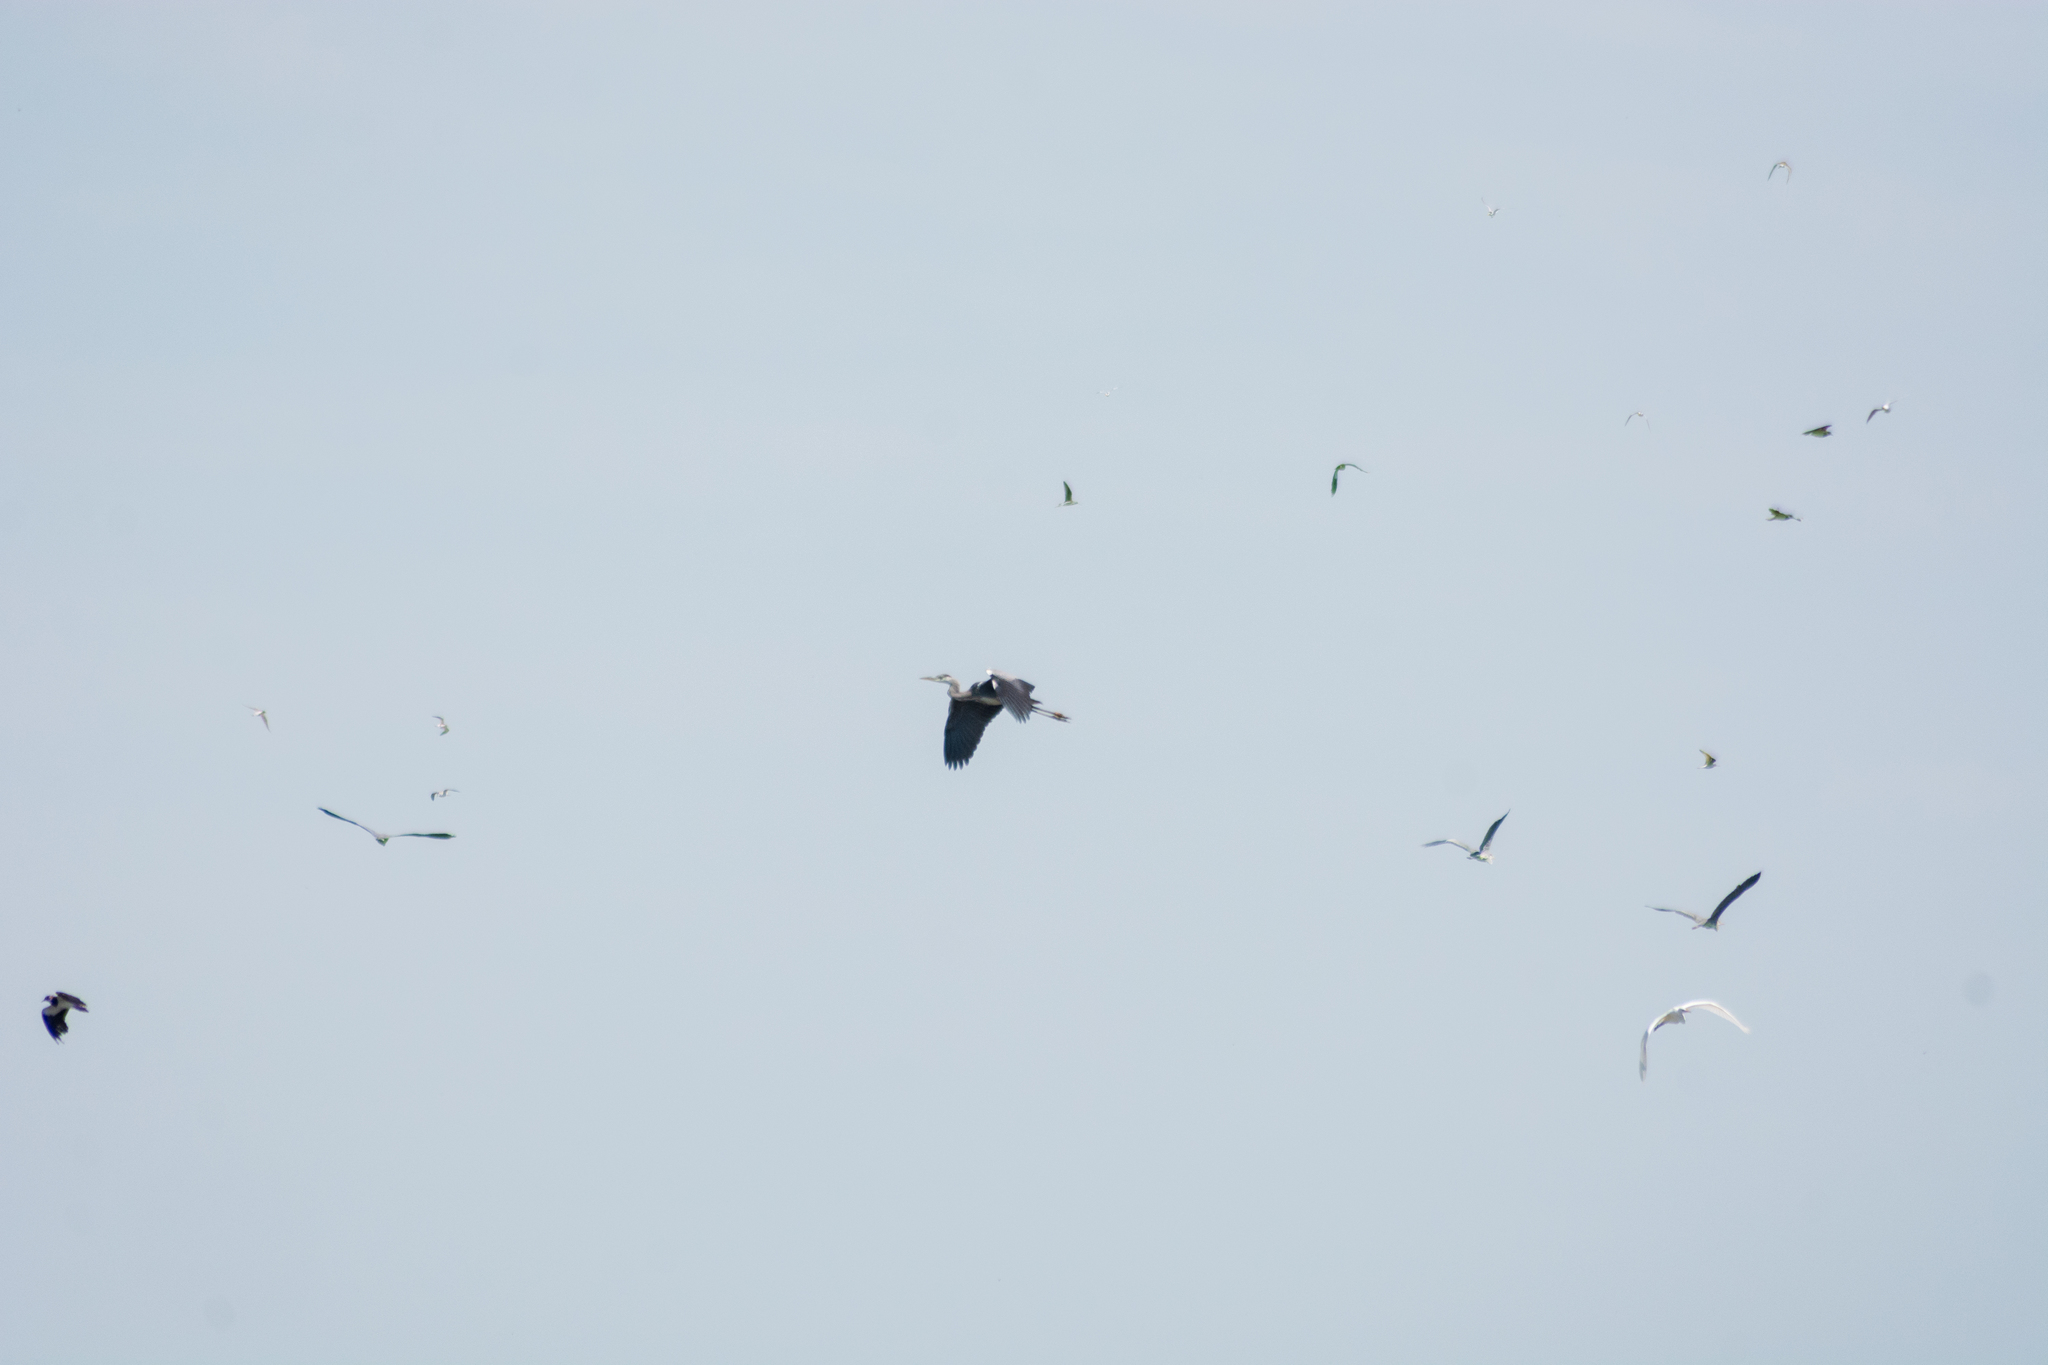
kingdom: Animalia
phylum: Chordata
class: Aves
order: Pelecaniformes
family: Ardeidae
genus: Ardea
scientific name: Ardea cinerea
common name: Grey heron
